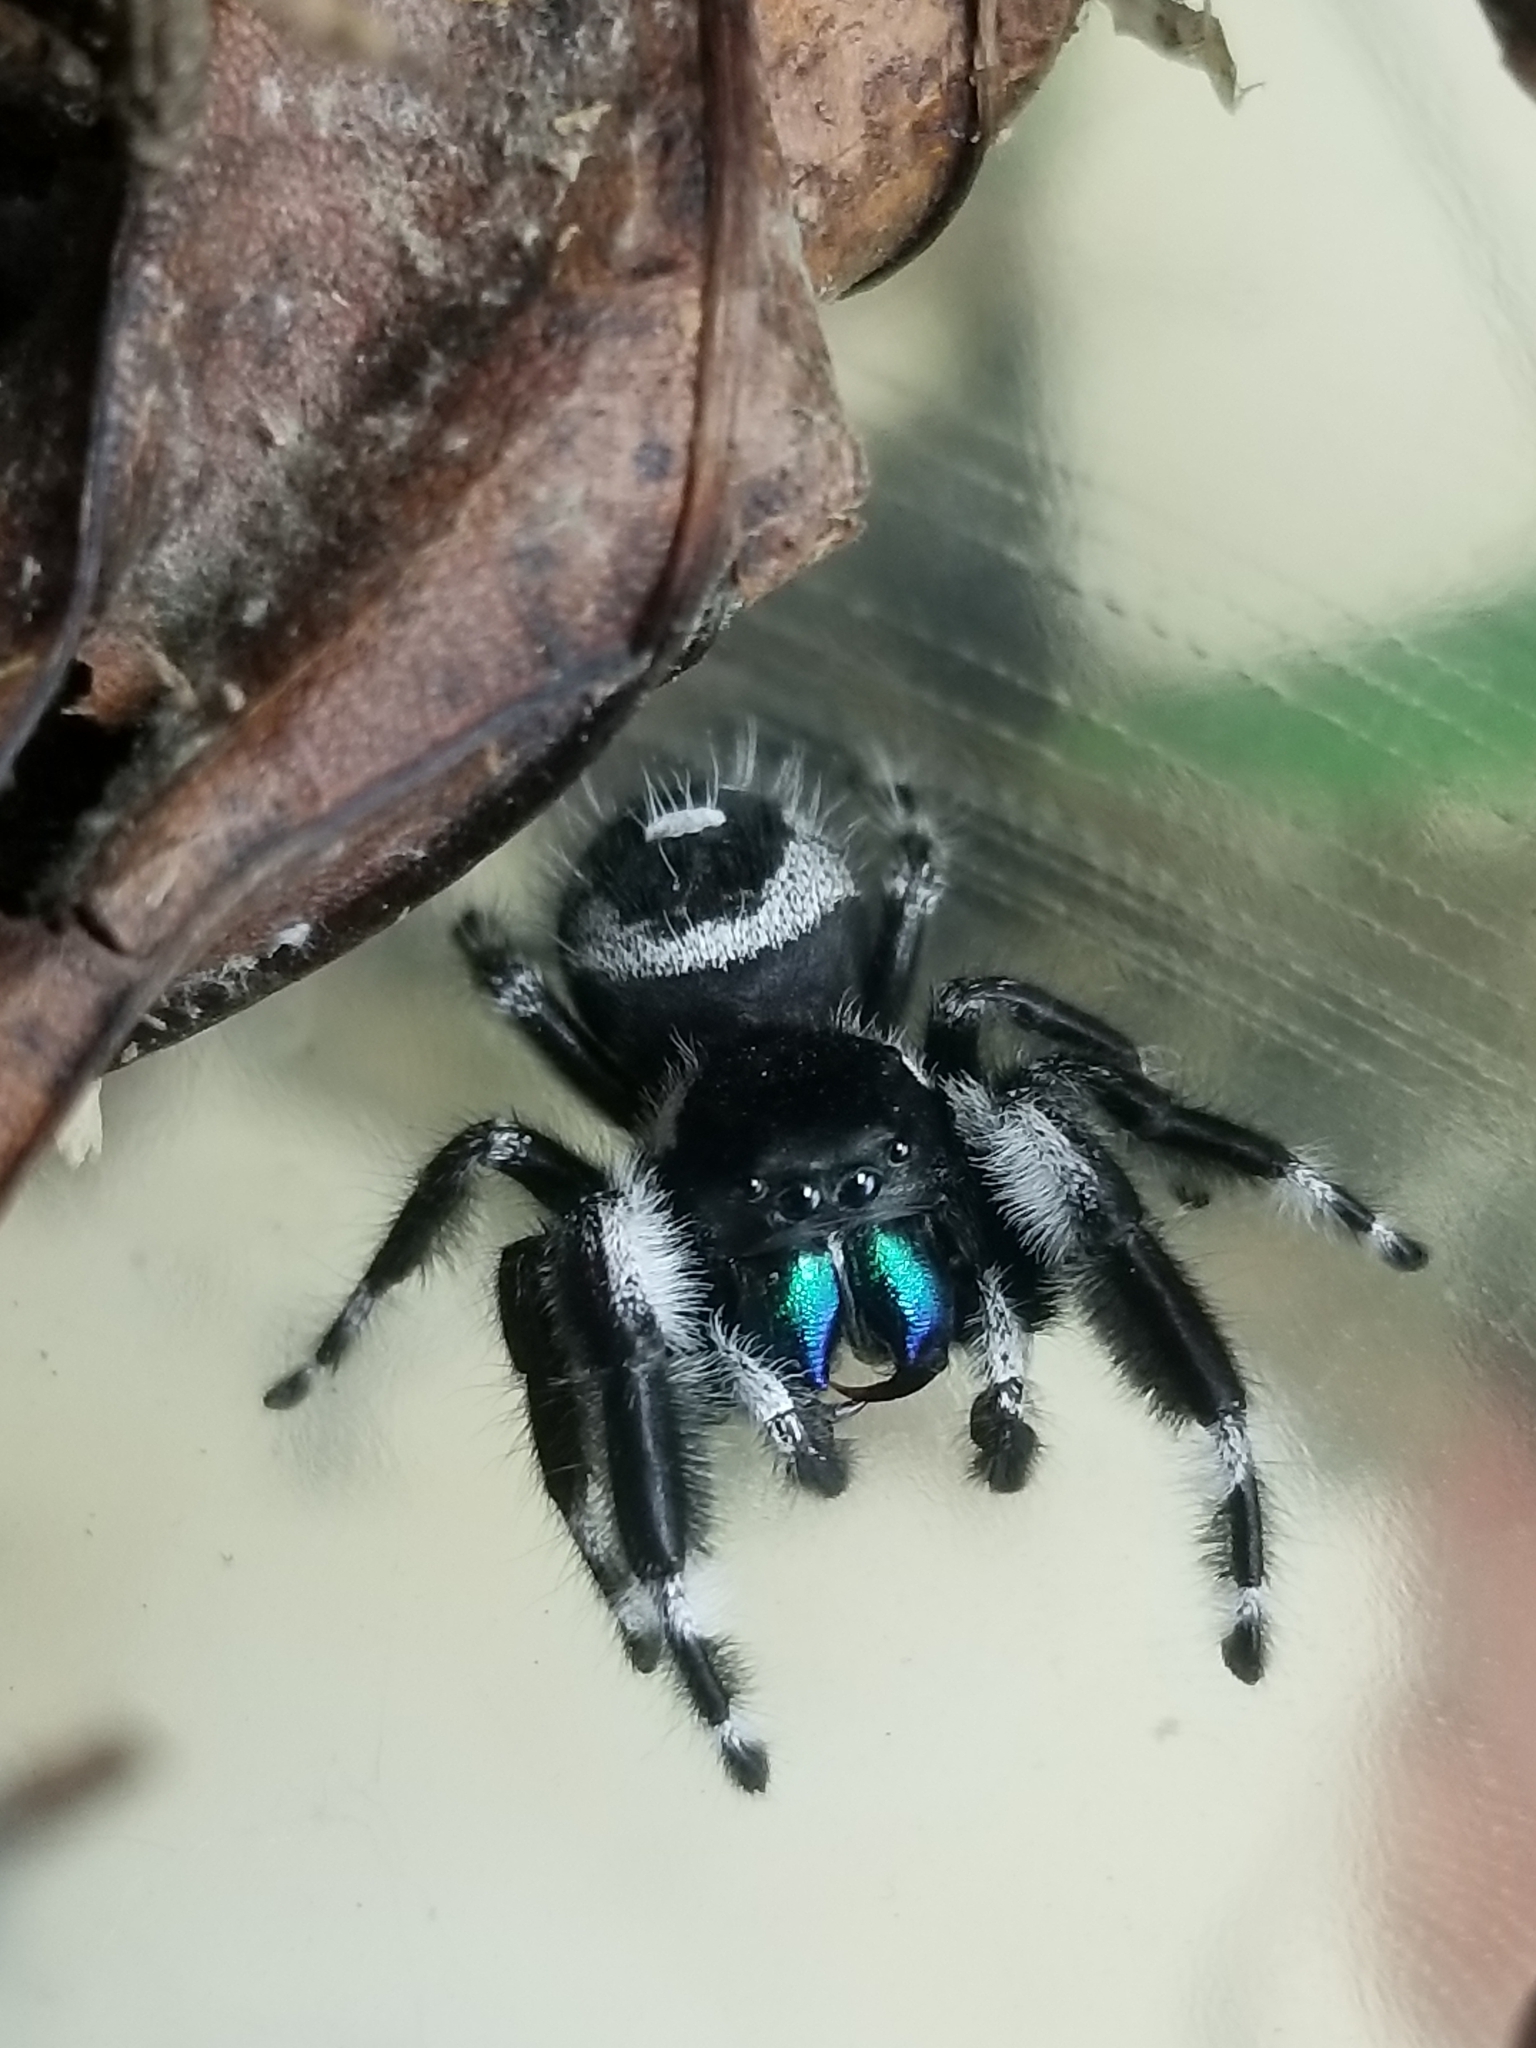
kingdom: Animalia
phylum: Arthropoda
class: Arachnida
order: Araneae
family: Salticidae
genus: Phidippus
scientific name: Phidippus audax
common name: Bold jumper
